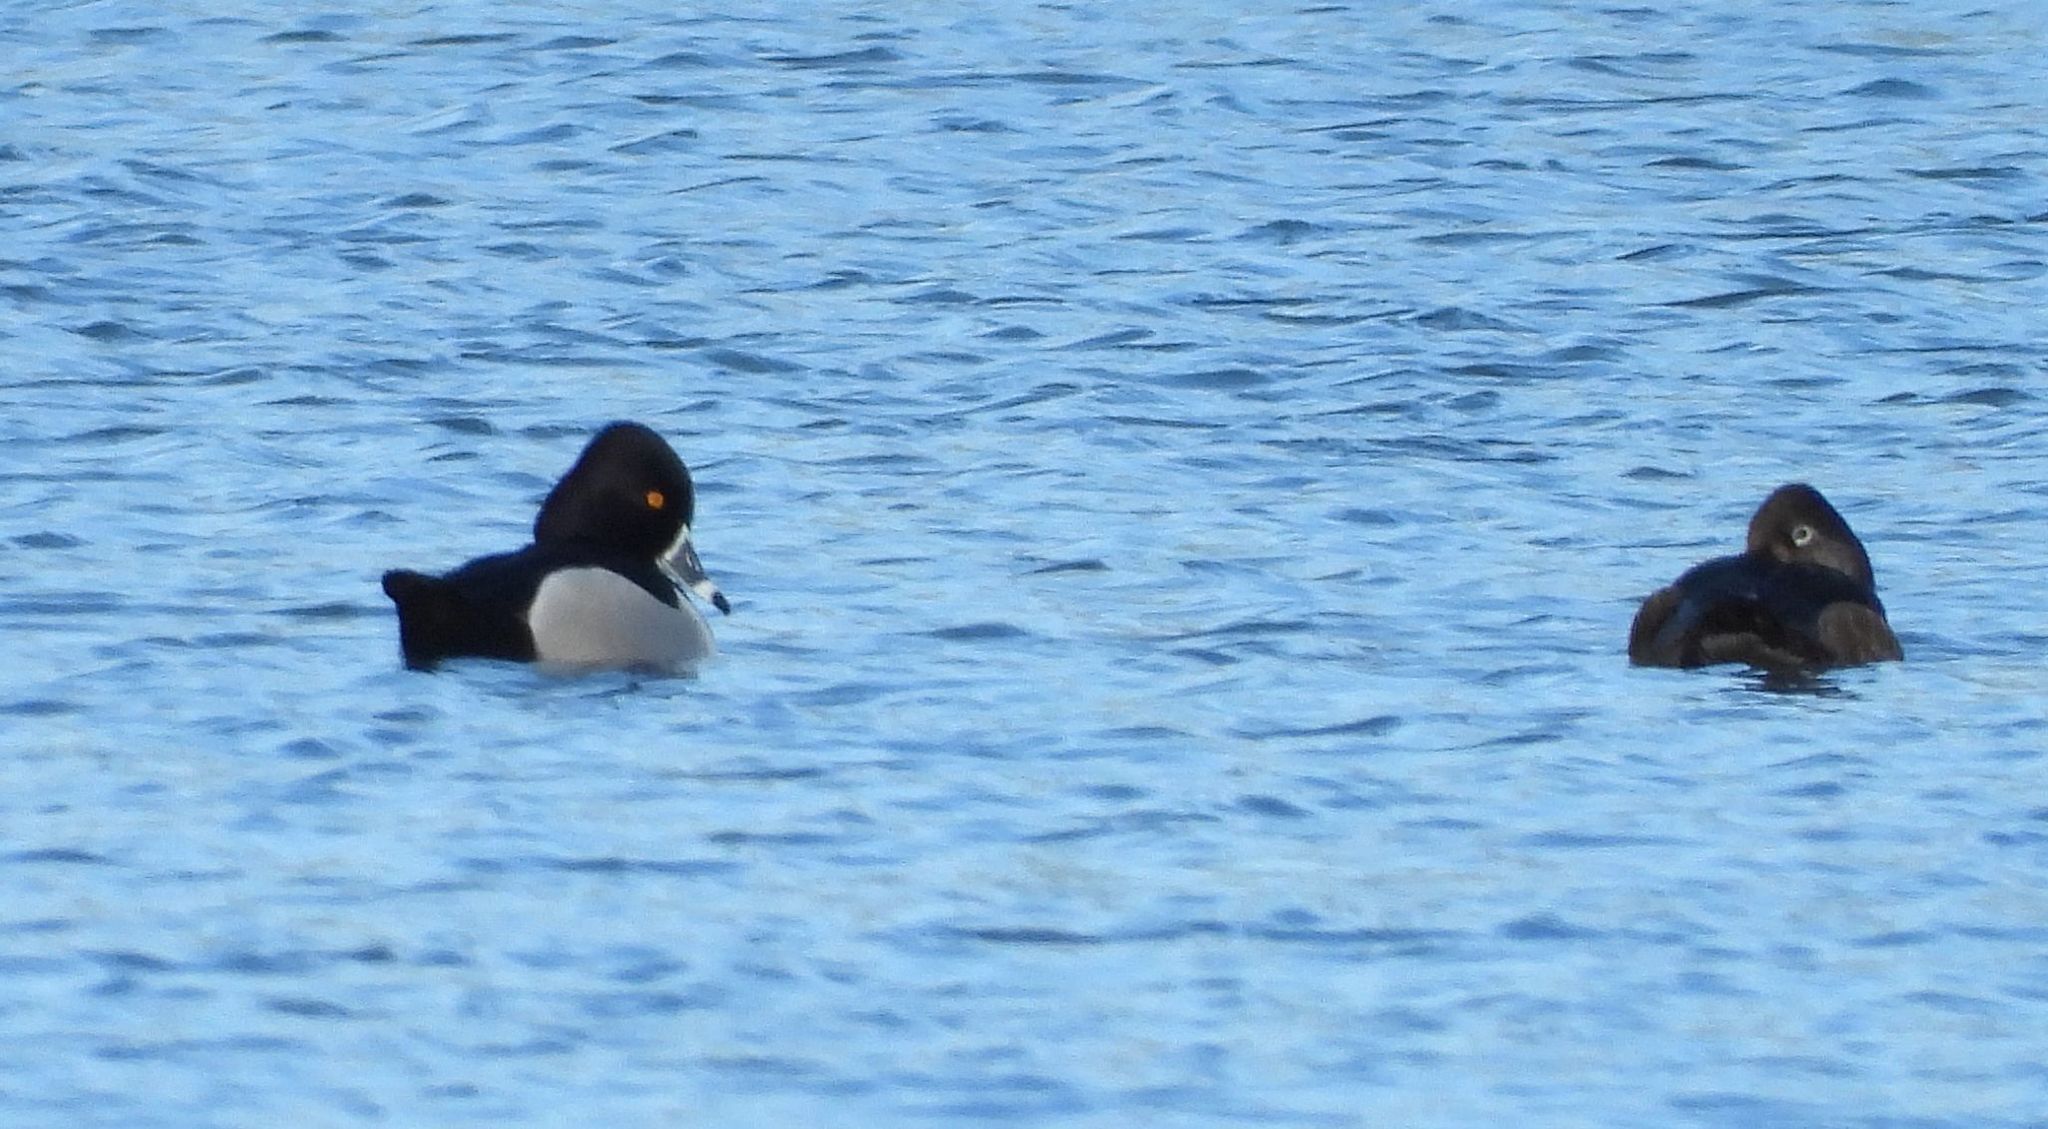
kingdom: Animalia
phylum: Chordata
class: Aves
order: Anseriformes
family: Anatidae
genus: Aythya
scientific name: Aythya collaris
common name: Ring-necked duck
